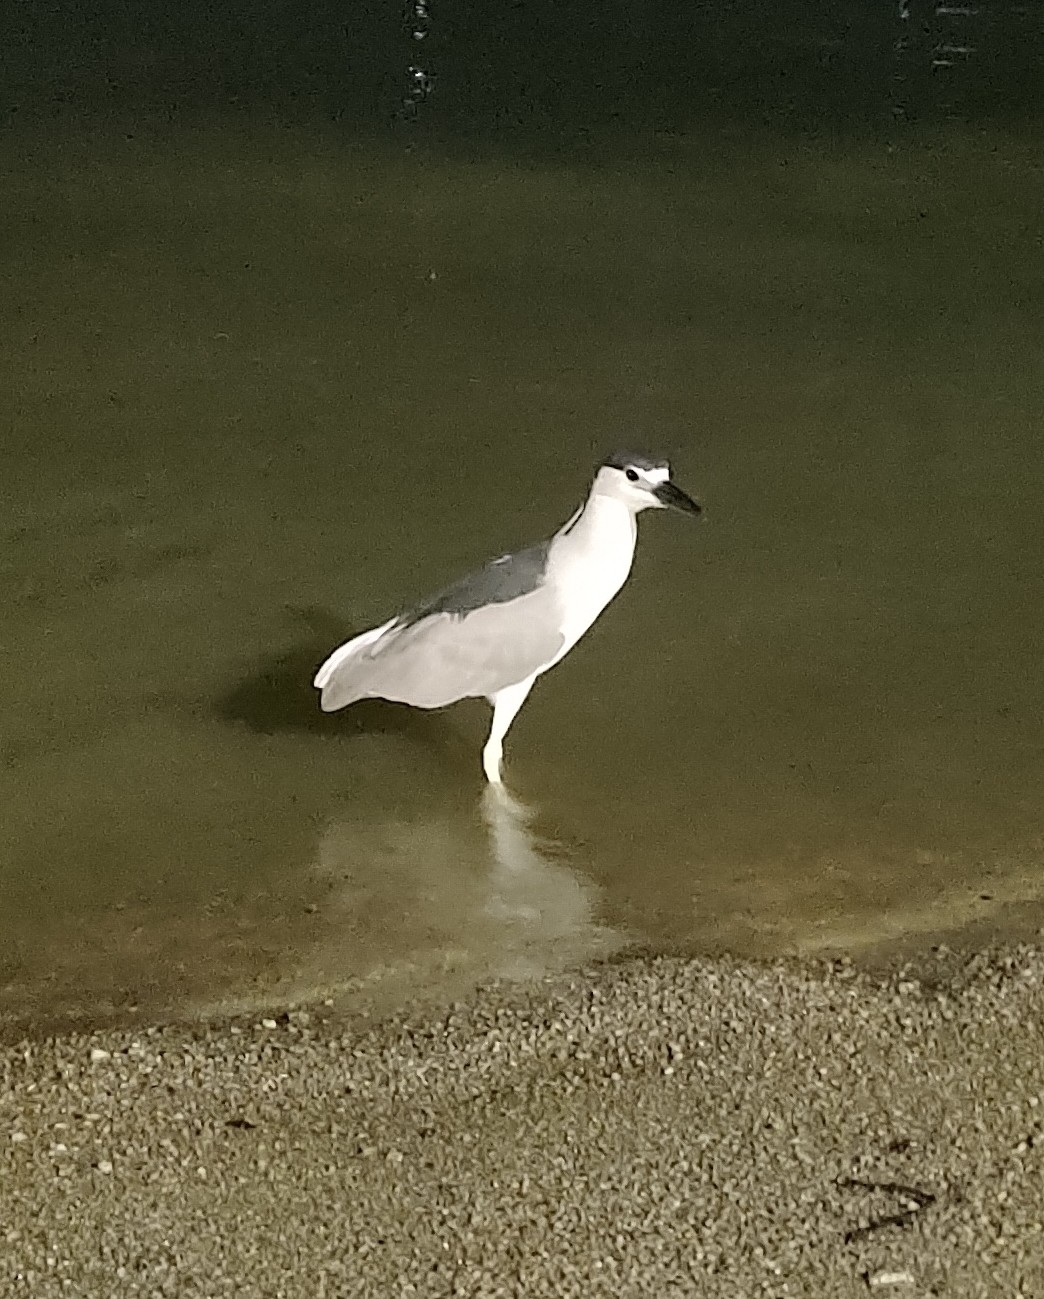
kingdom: Animalia
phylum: Chordata
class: Aves
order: Pelecaniformes
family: Ardeidae
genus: Nycticorax
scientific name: Nycticorax nycticorax
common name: Black-crowned night heron
